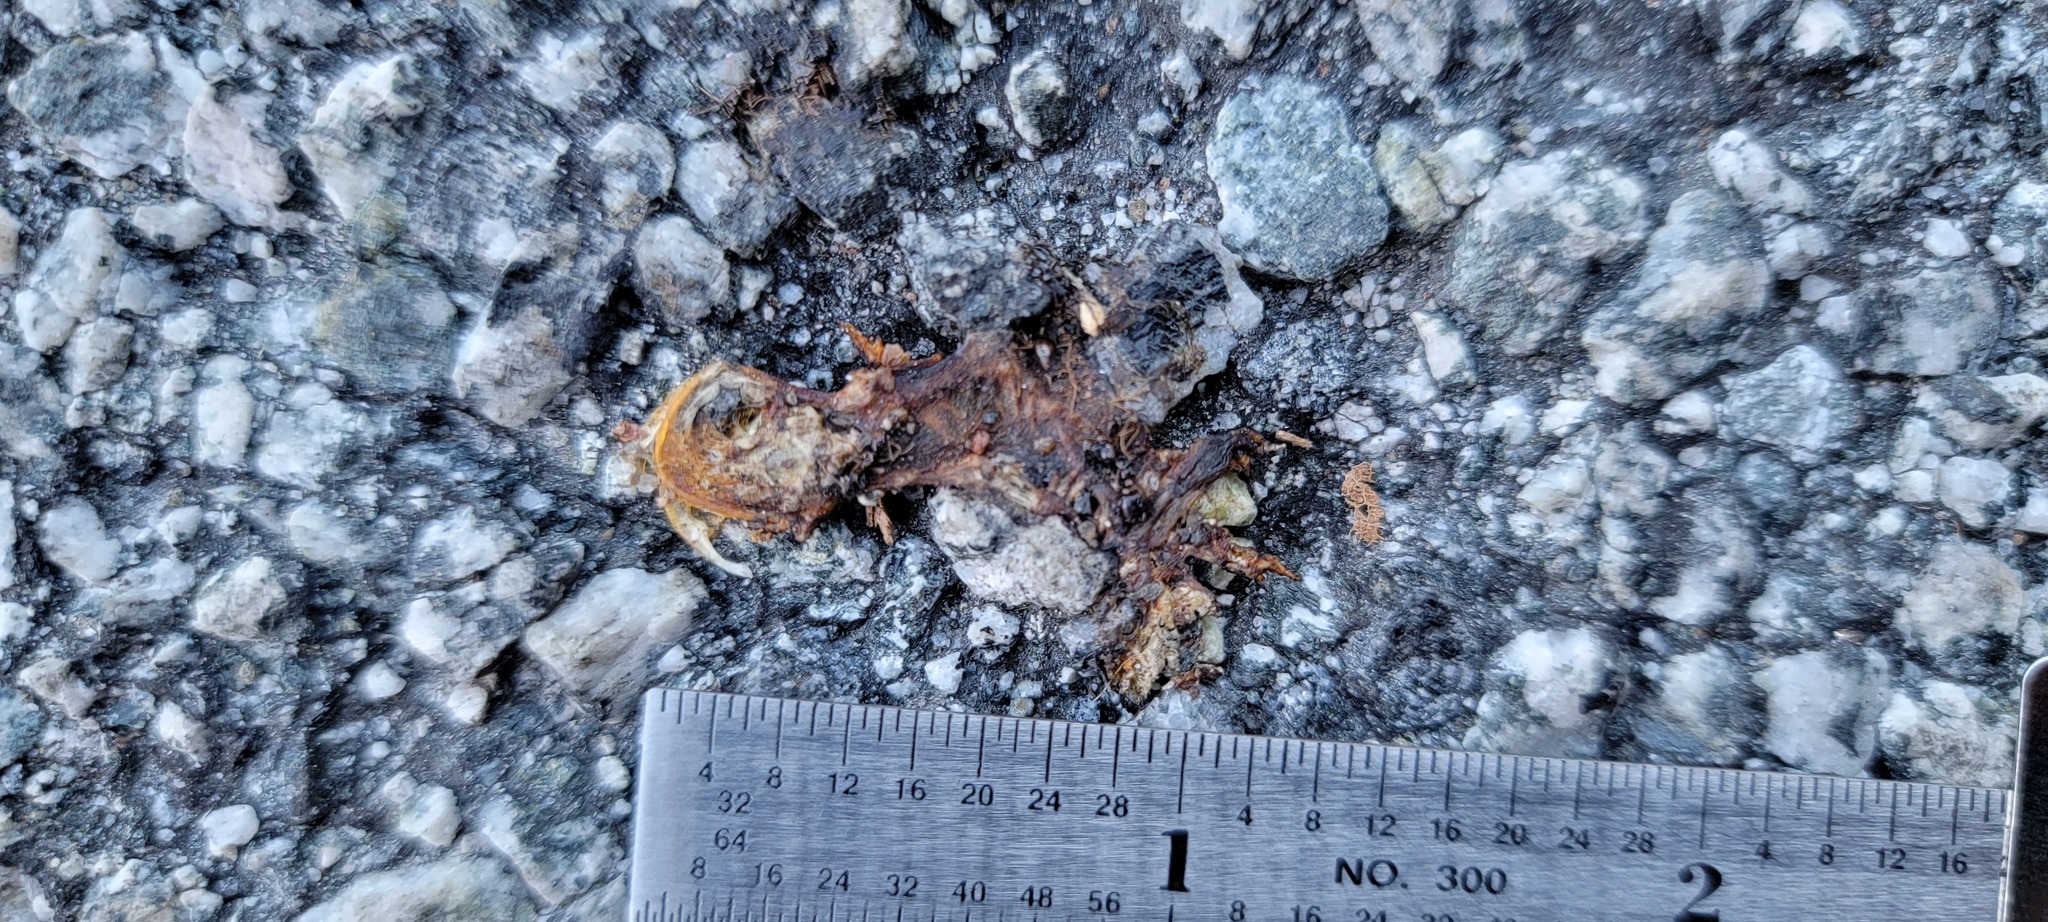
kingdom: Animalia
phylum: Chordata
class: Amphibia
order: Caudata
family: Salamandridae
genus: Taricha
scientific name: Taricha
